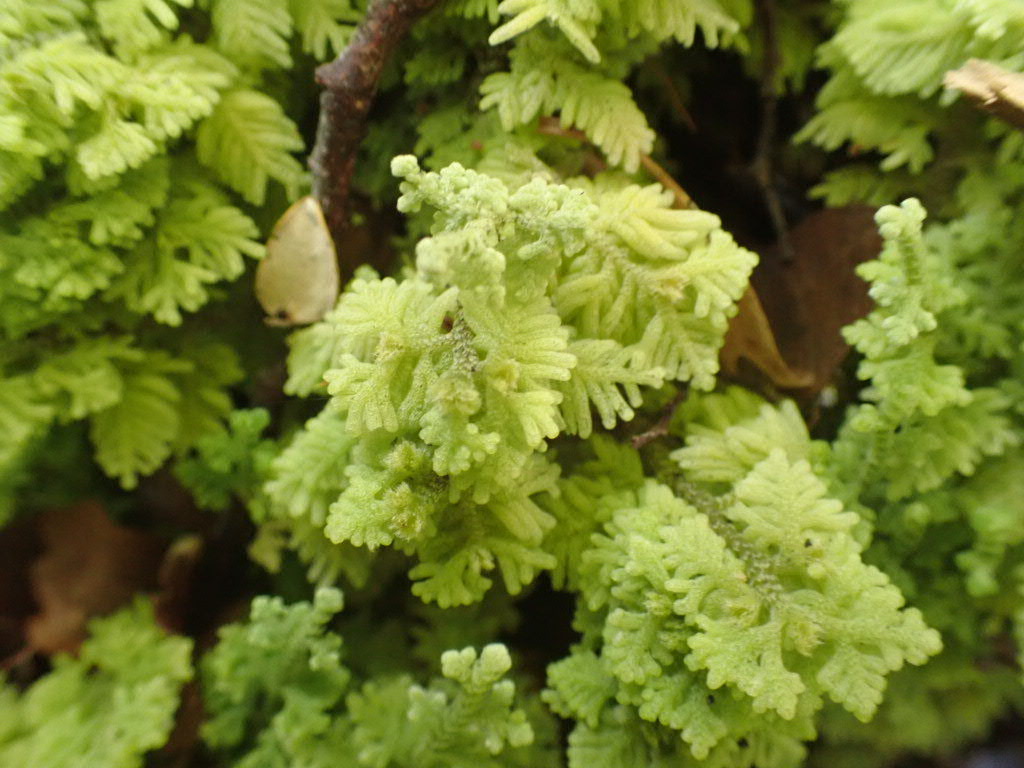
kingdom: Plantae
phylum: Marchantiophyta
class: Jungermanniopsida
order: Jungermanniales
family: Trichocoleaceae
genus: Trichocolea
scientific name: Trichocolea mollissima
